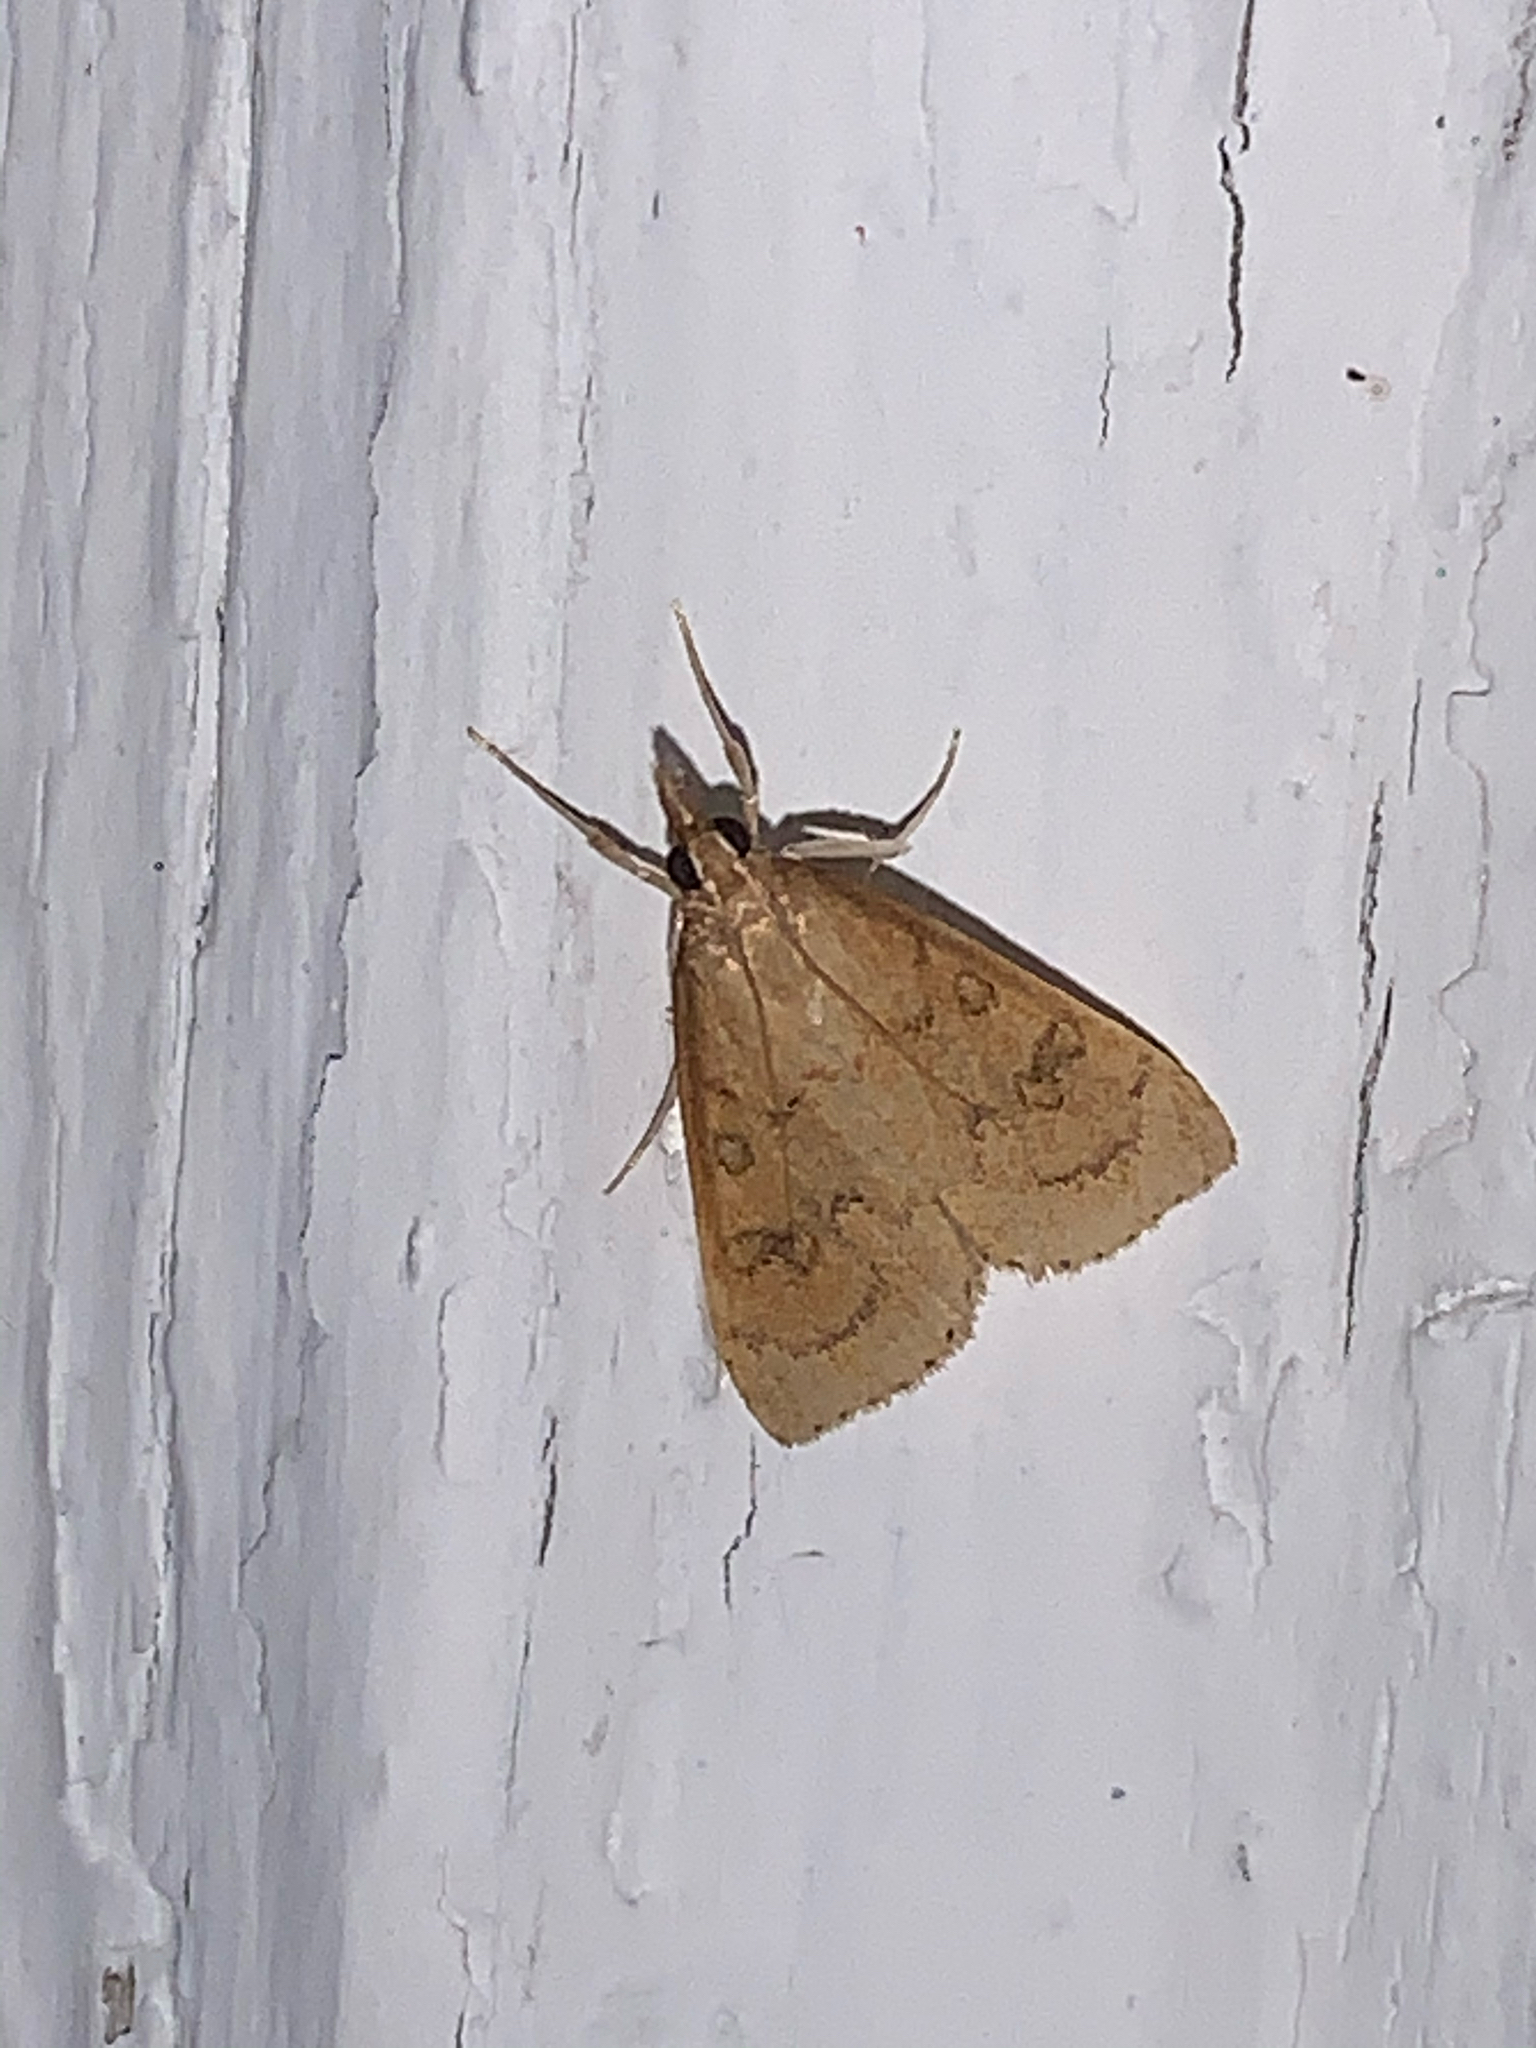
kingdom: Animalia
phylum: Arthropoda
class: Insecta
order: Lepidoptera
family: Crambidae
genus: Udea
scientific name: Udea rubigalis
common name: Celery leaftier moth
